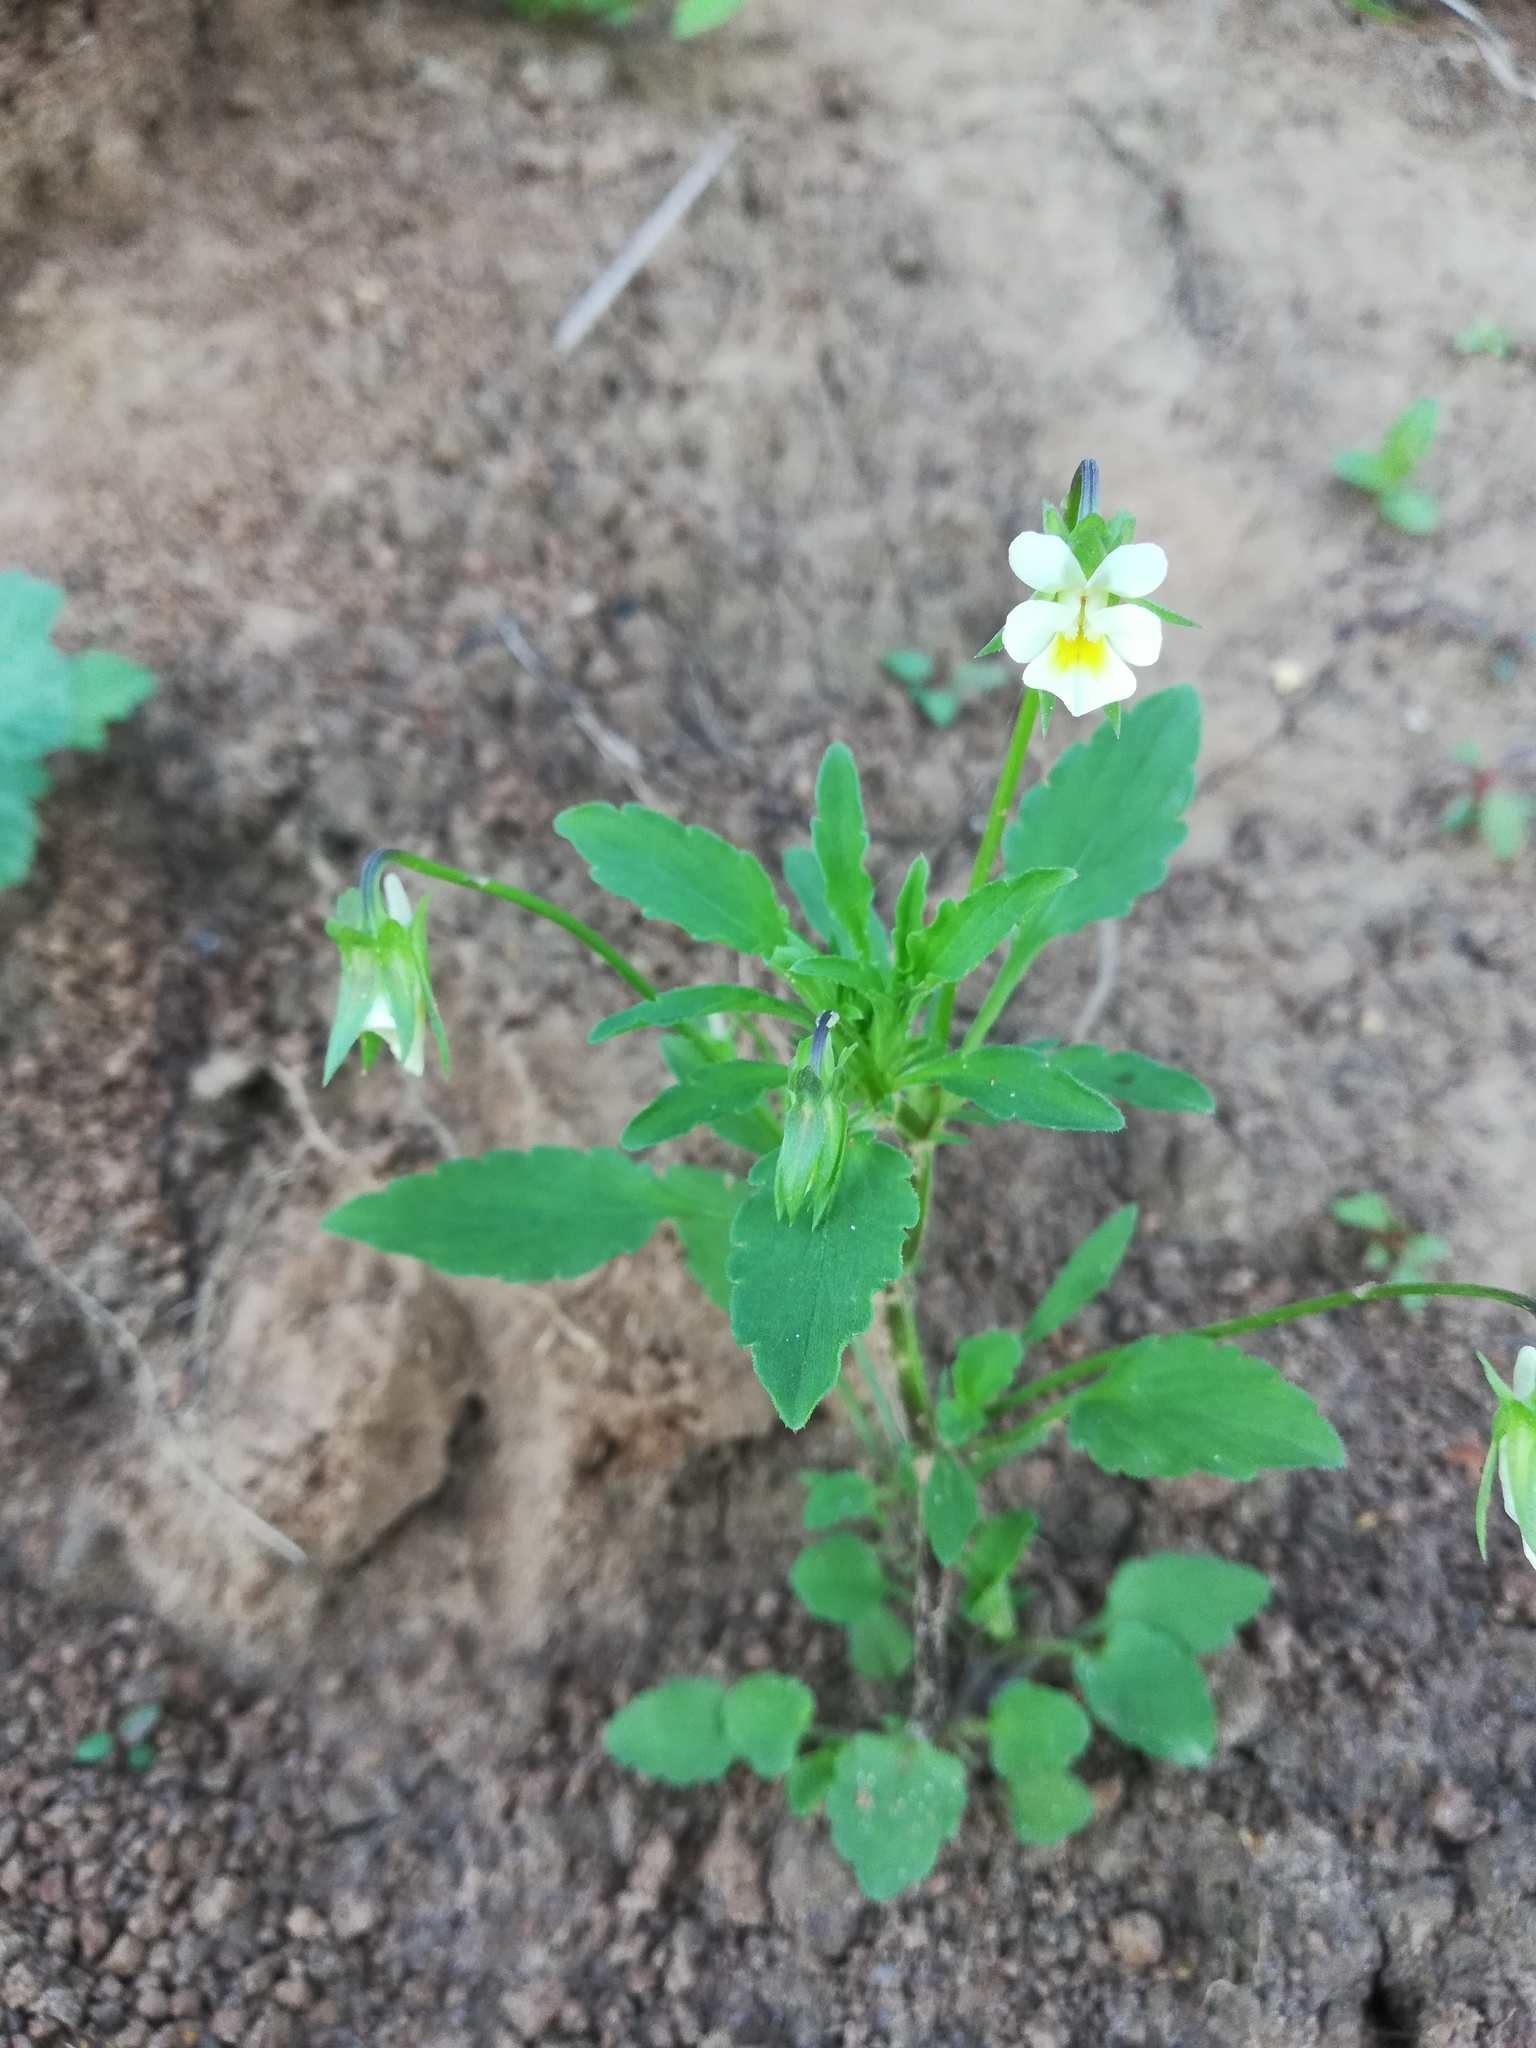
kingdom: Plantae
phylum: Tracheophyta
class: Magnoliopsida
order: Malpighiales
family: Violaceae
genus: Viola
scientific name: Viola arvensis
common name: Field pansy
